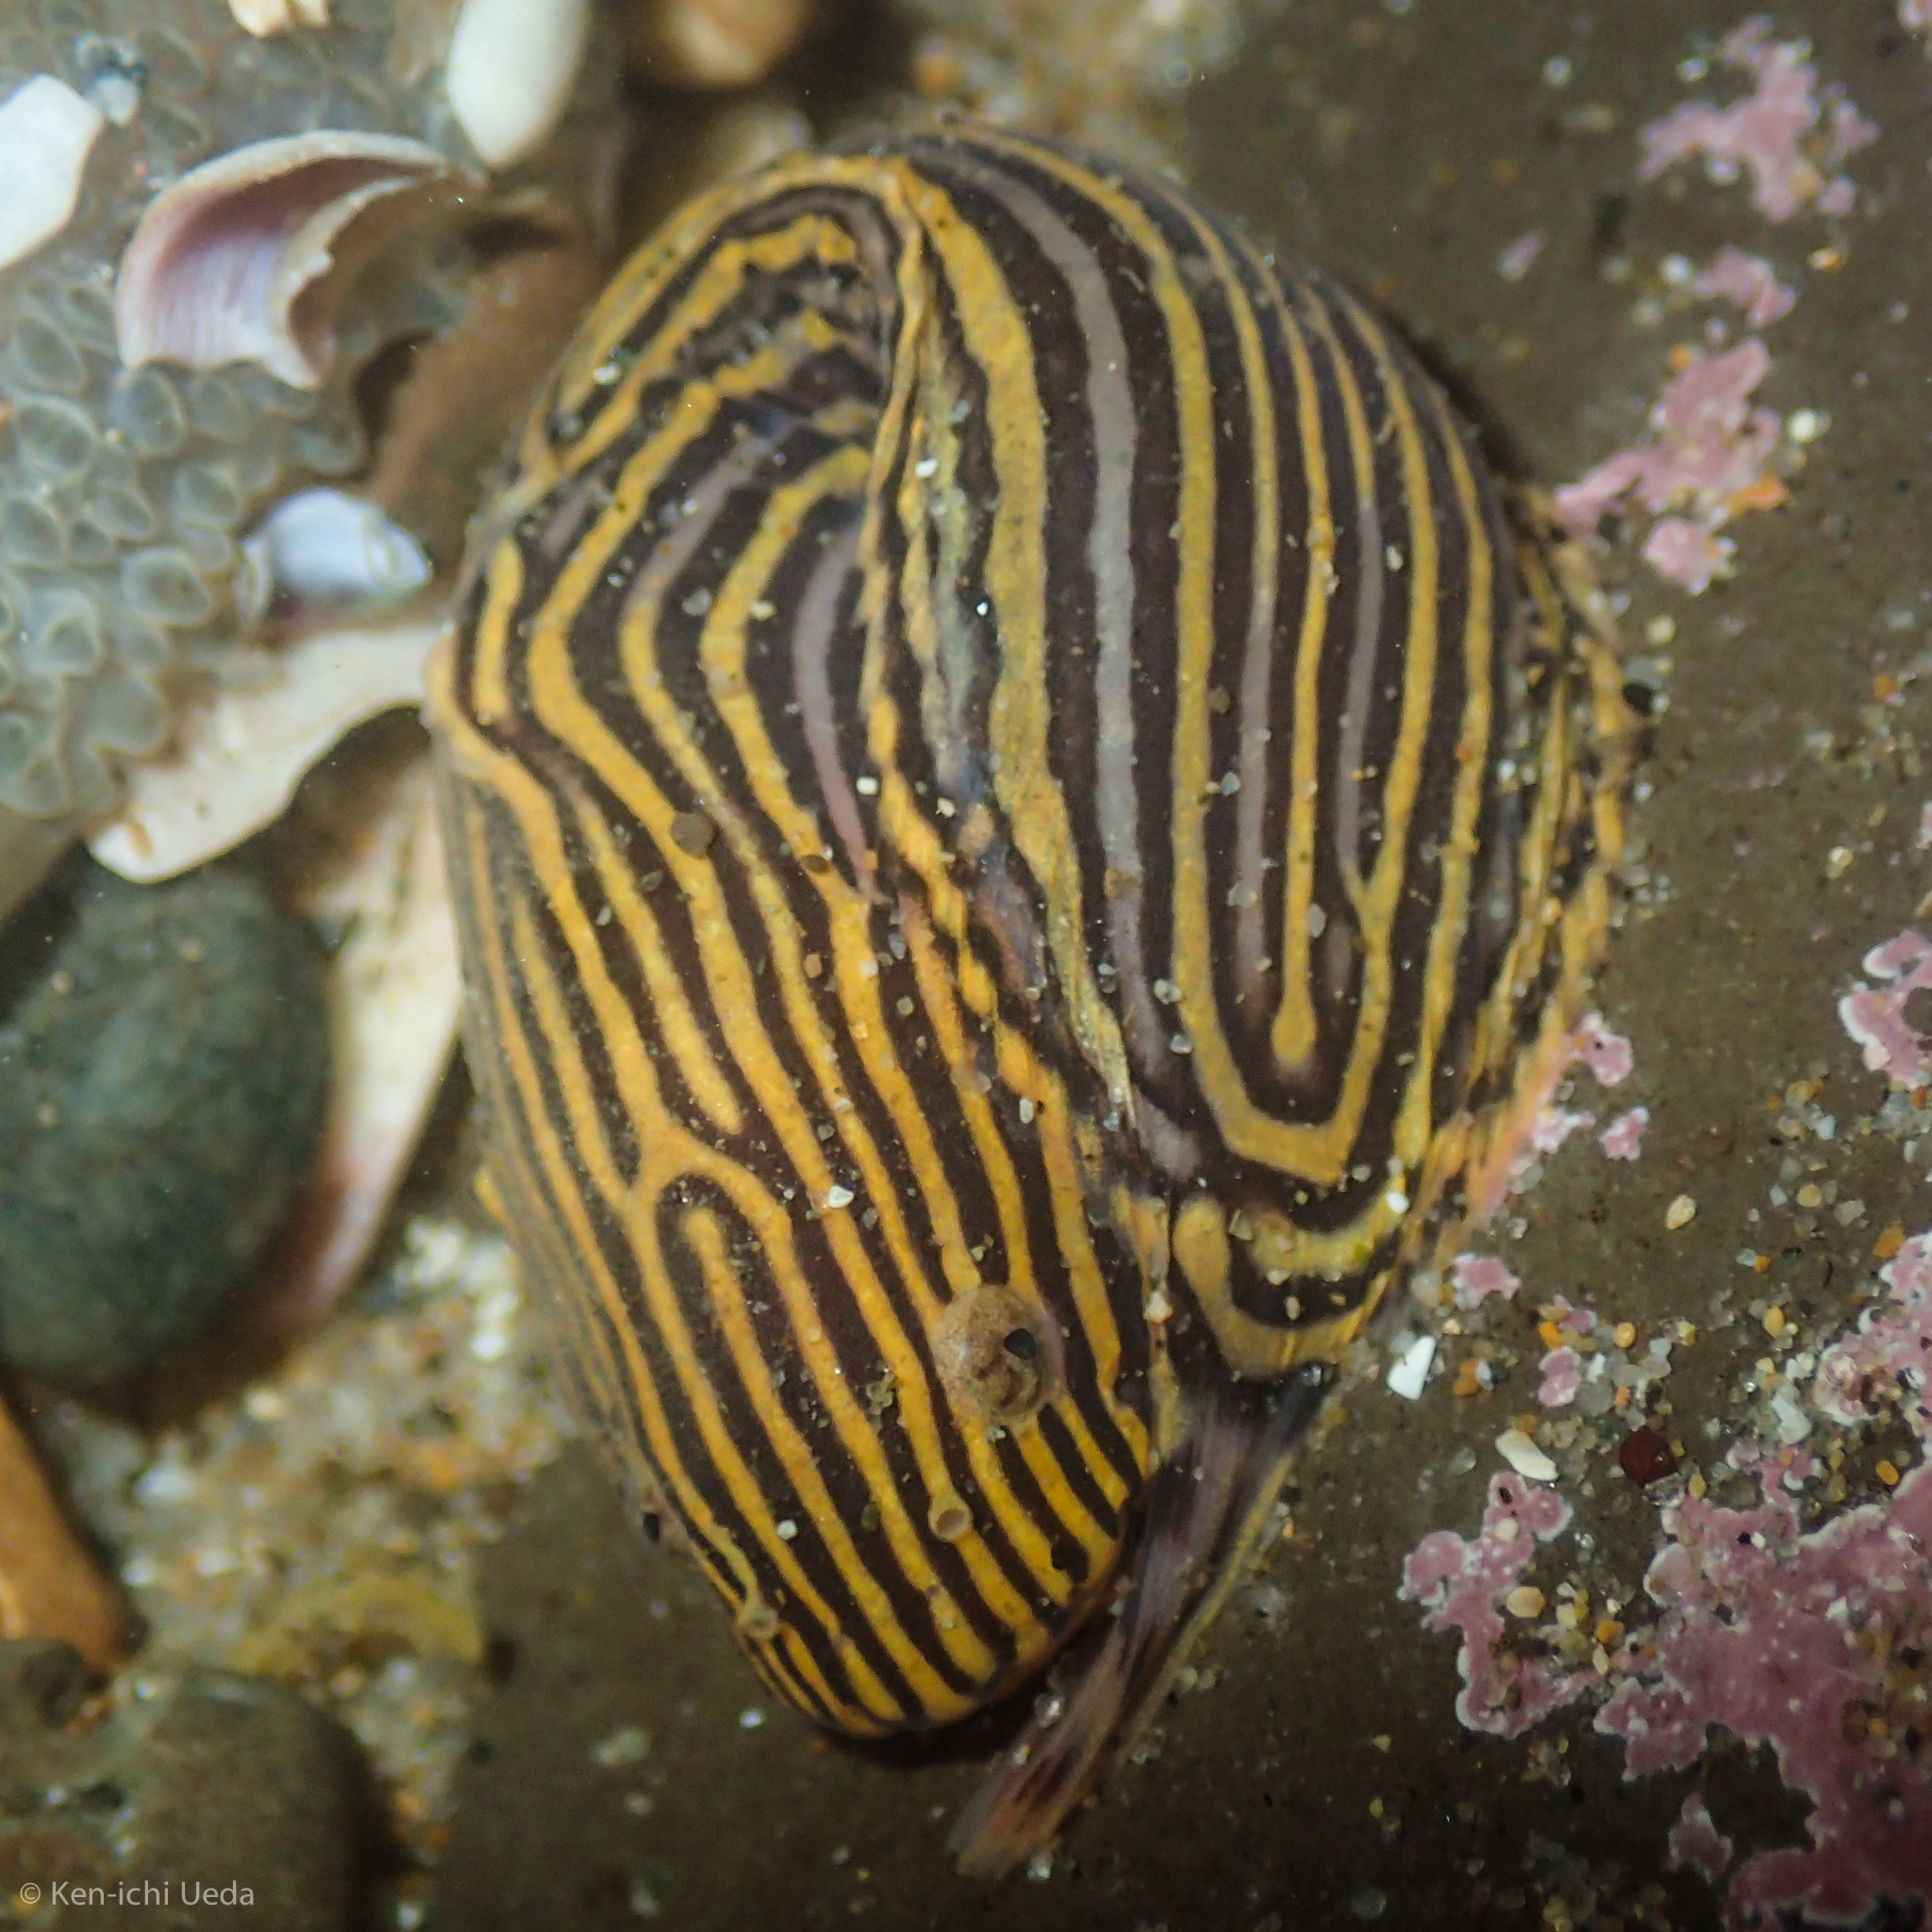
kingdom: Animalia
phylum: Chordata
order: Scorpaeniformes
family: Liparidae
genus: Liparis
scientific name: Liparis mucosus
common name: Slimy snailfish
